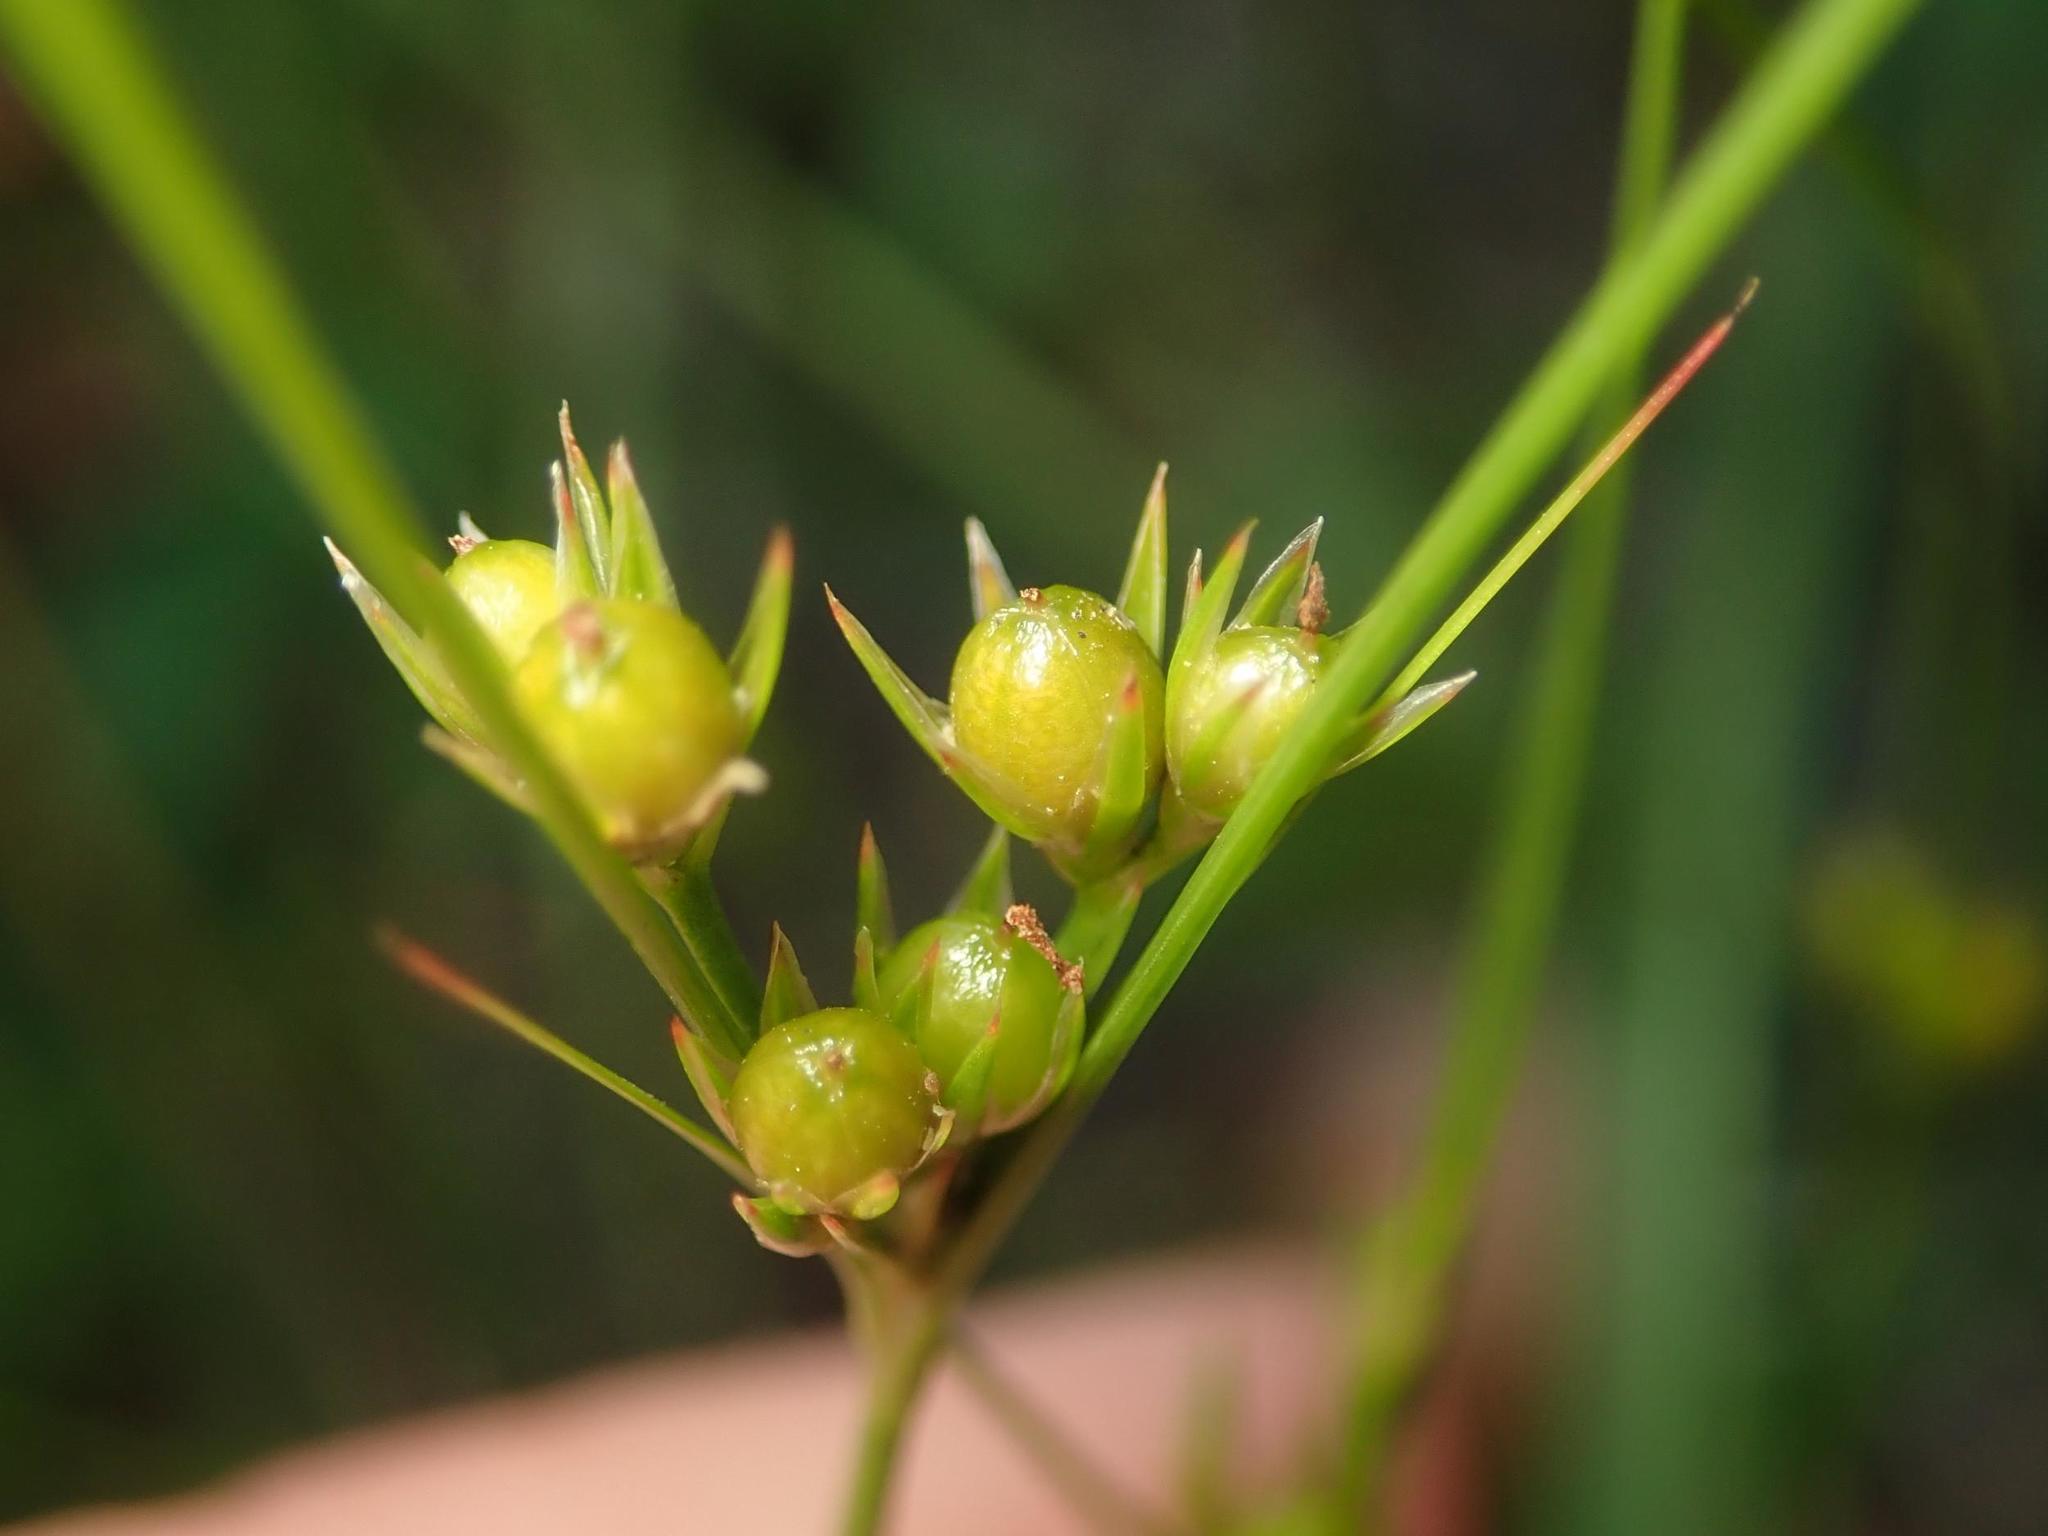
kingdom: Plantae
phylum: Tracheophyta
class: Liliopsida
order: Poales
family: Juncaceae
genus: Juncus
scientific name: Juncus tenuis
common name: Slender rush
